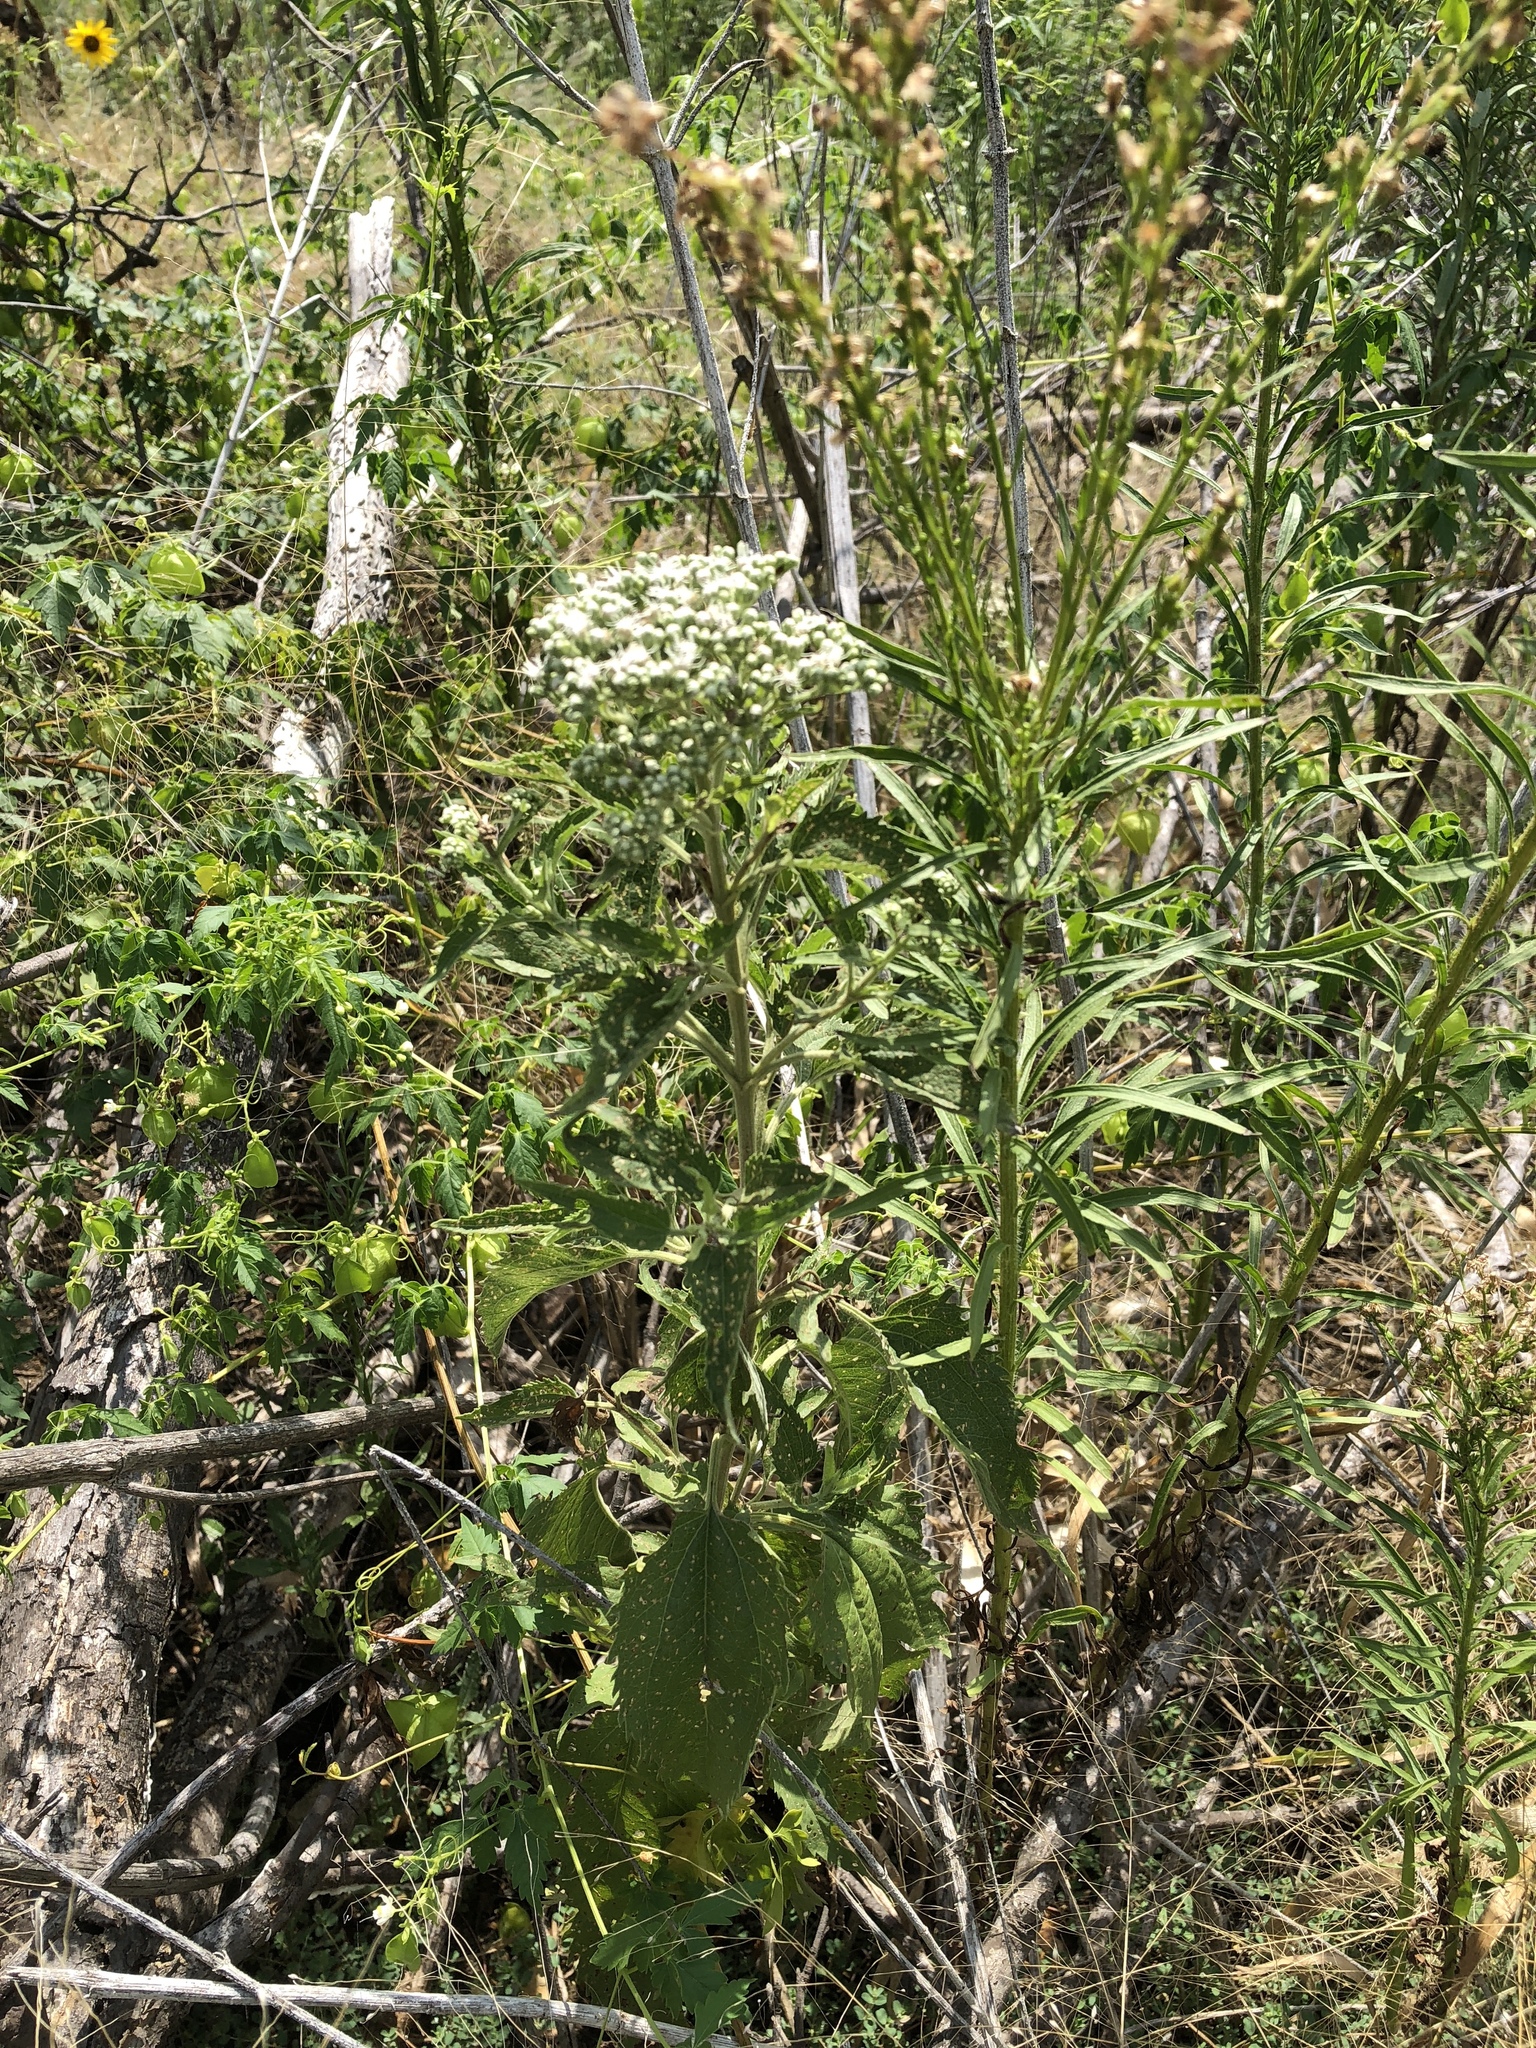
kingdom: Plantae
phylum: Tracheophyta
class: Magnoliopsida
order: Asterales
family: Asteraceae
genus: Eupatorium
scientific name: Eupatorium serotinum
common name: Late boneset
